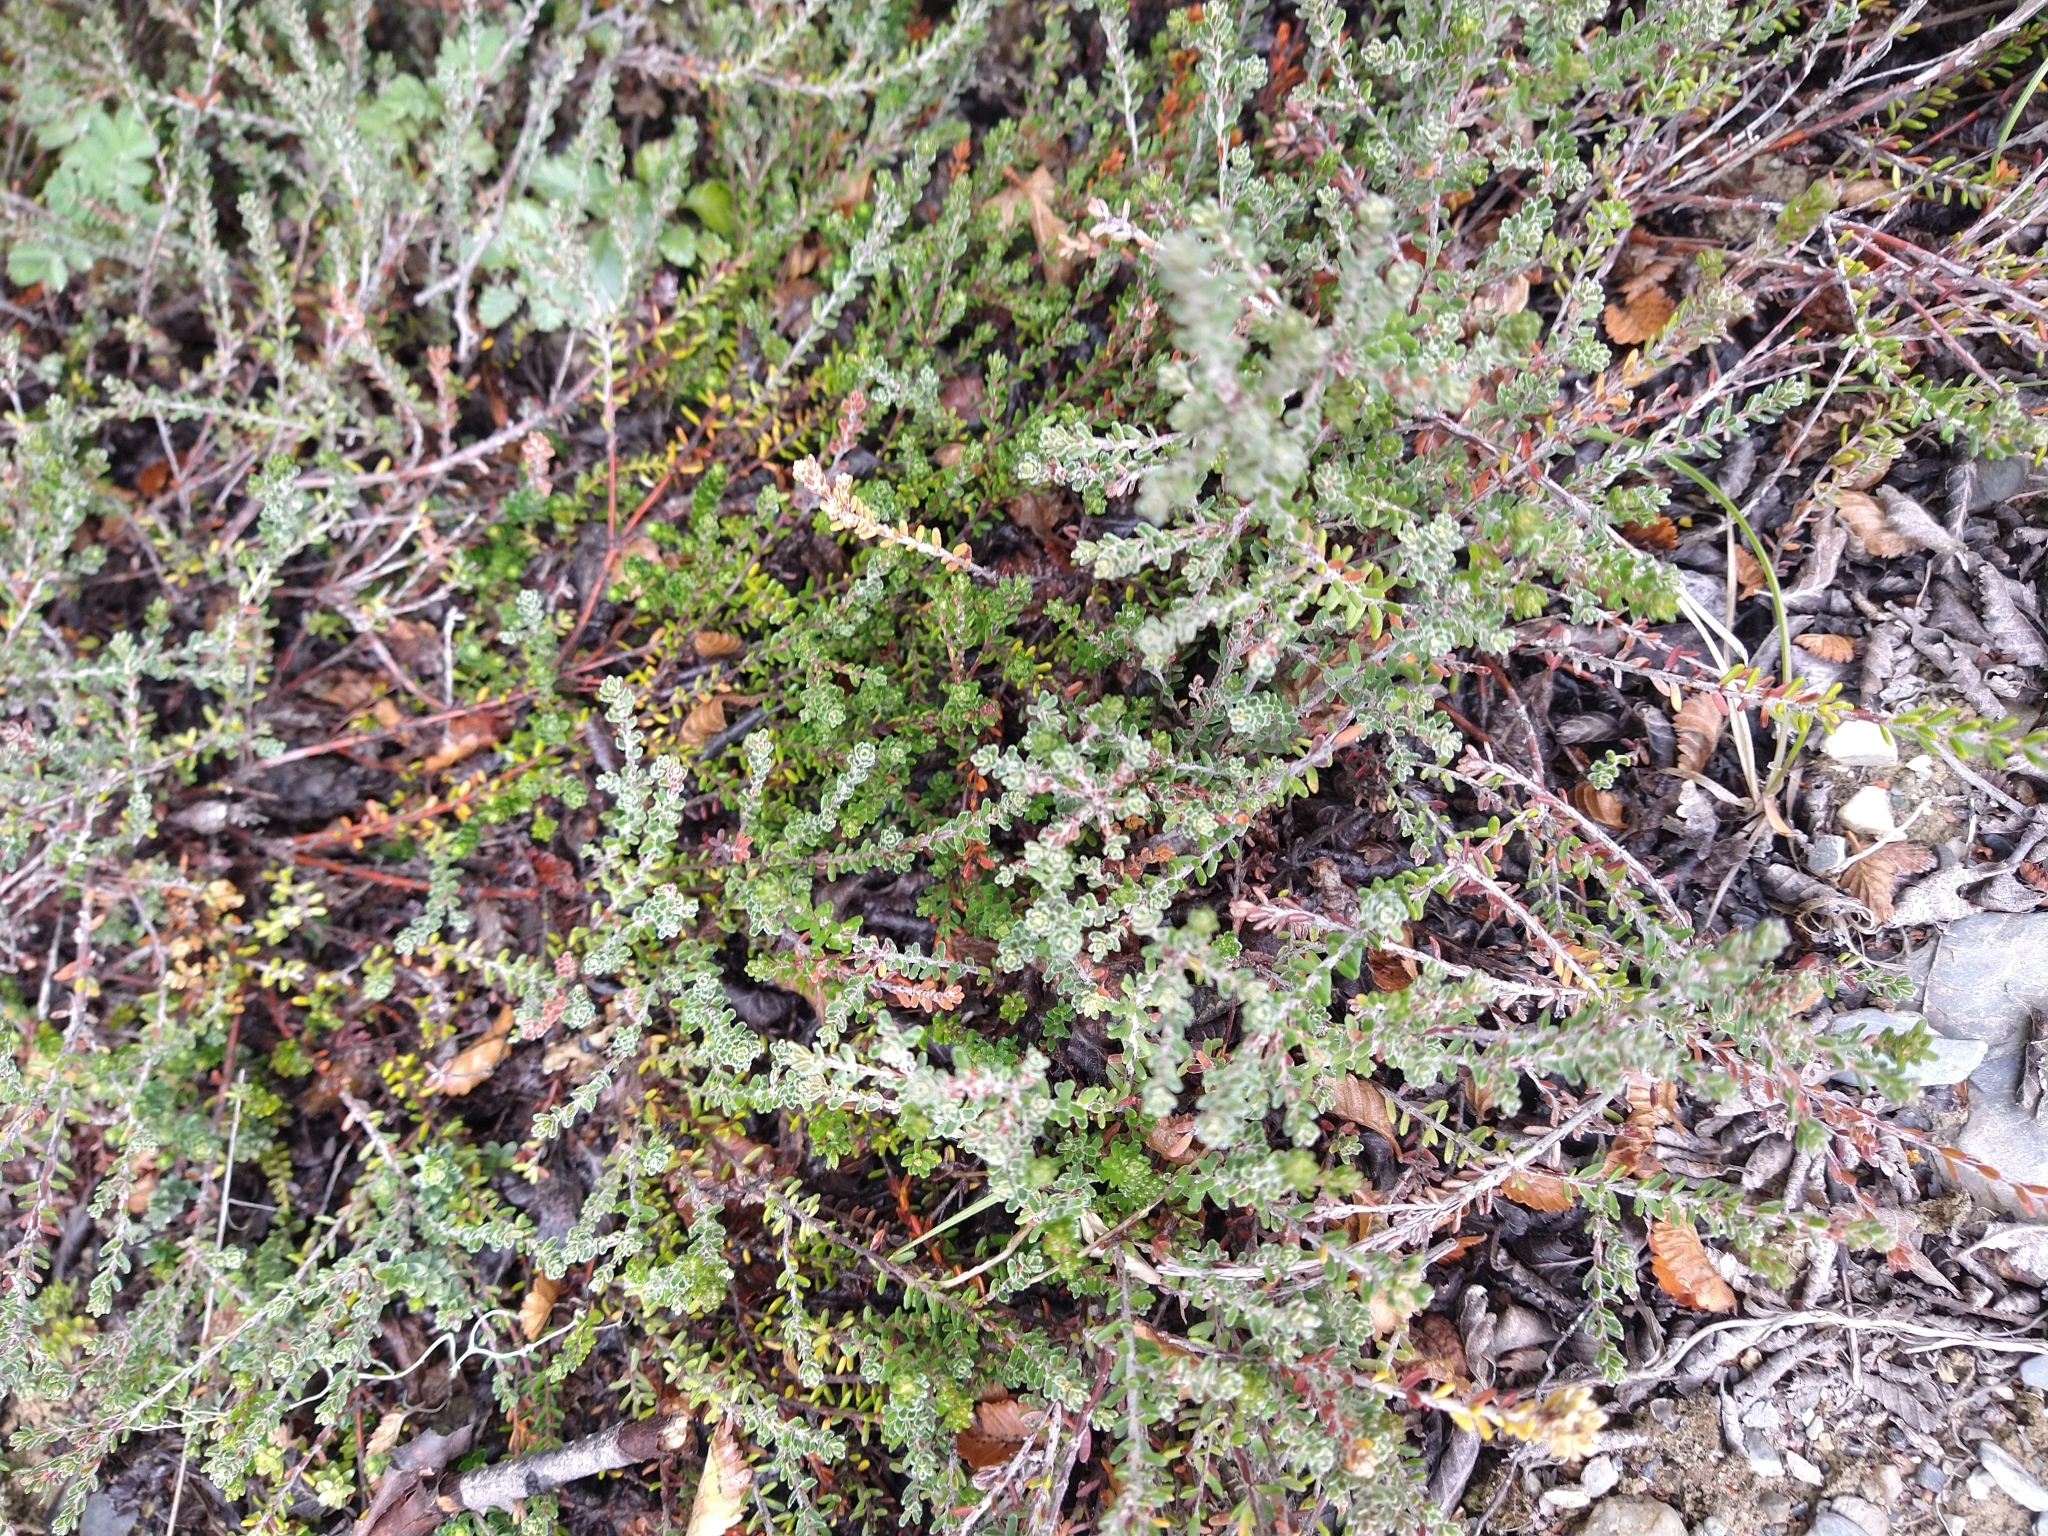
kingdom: Plantae
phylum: Tracheophyta
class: Magnoliopsida
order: Ericales
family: Ericaceae
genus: Empetrum
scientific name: Empetrum rubrum
